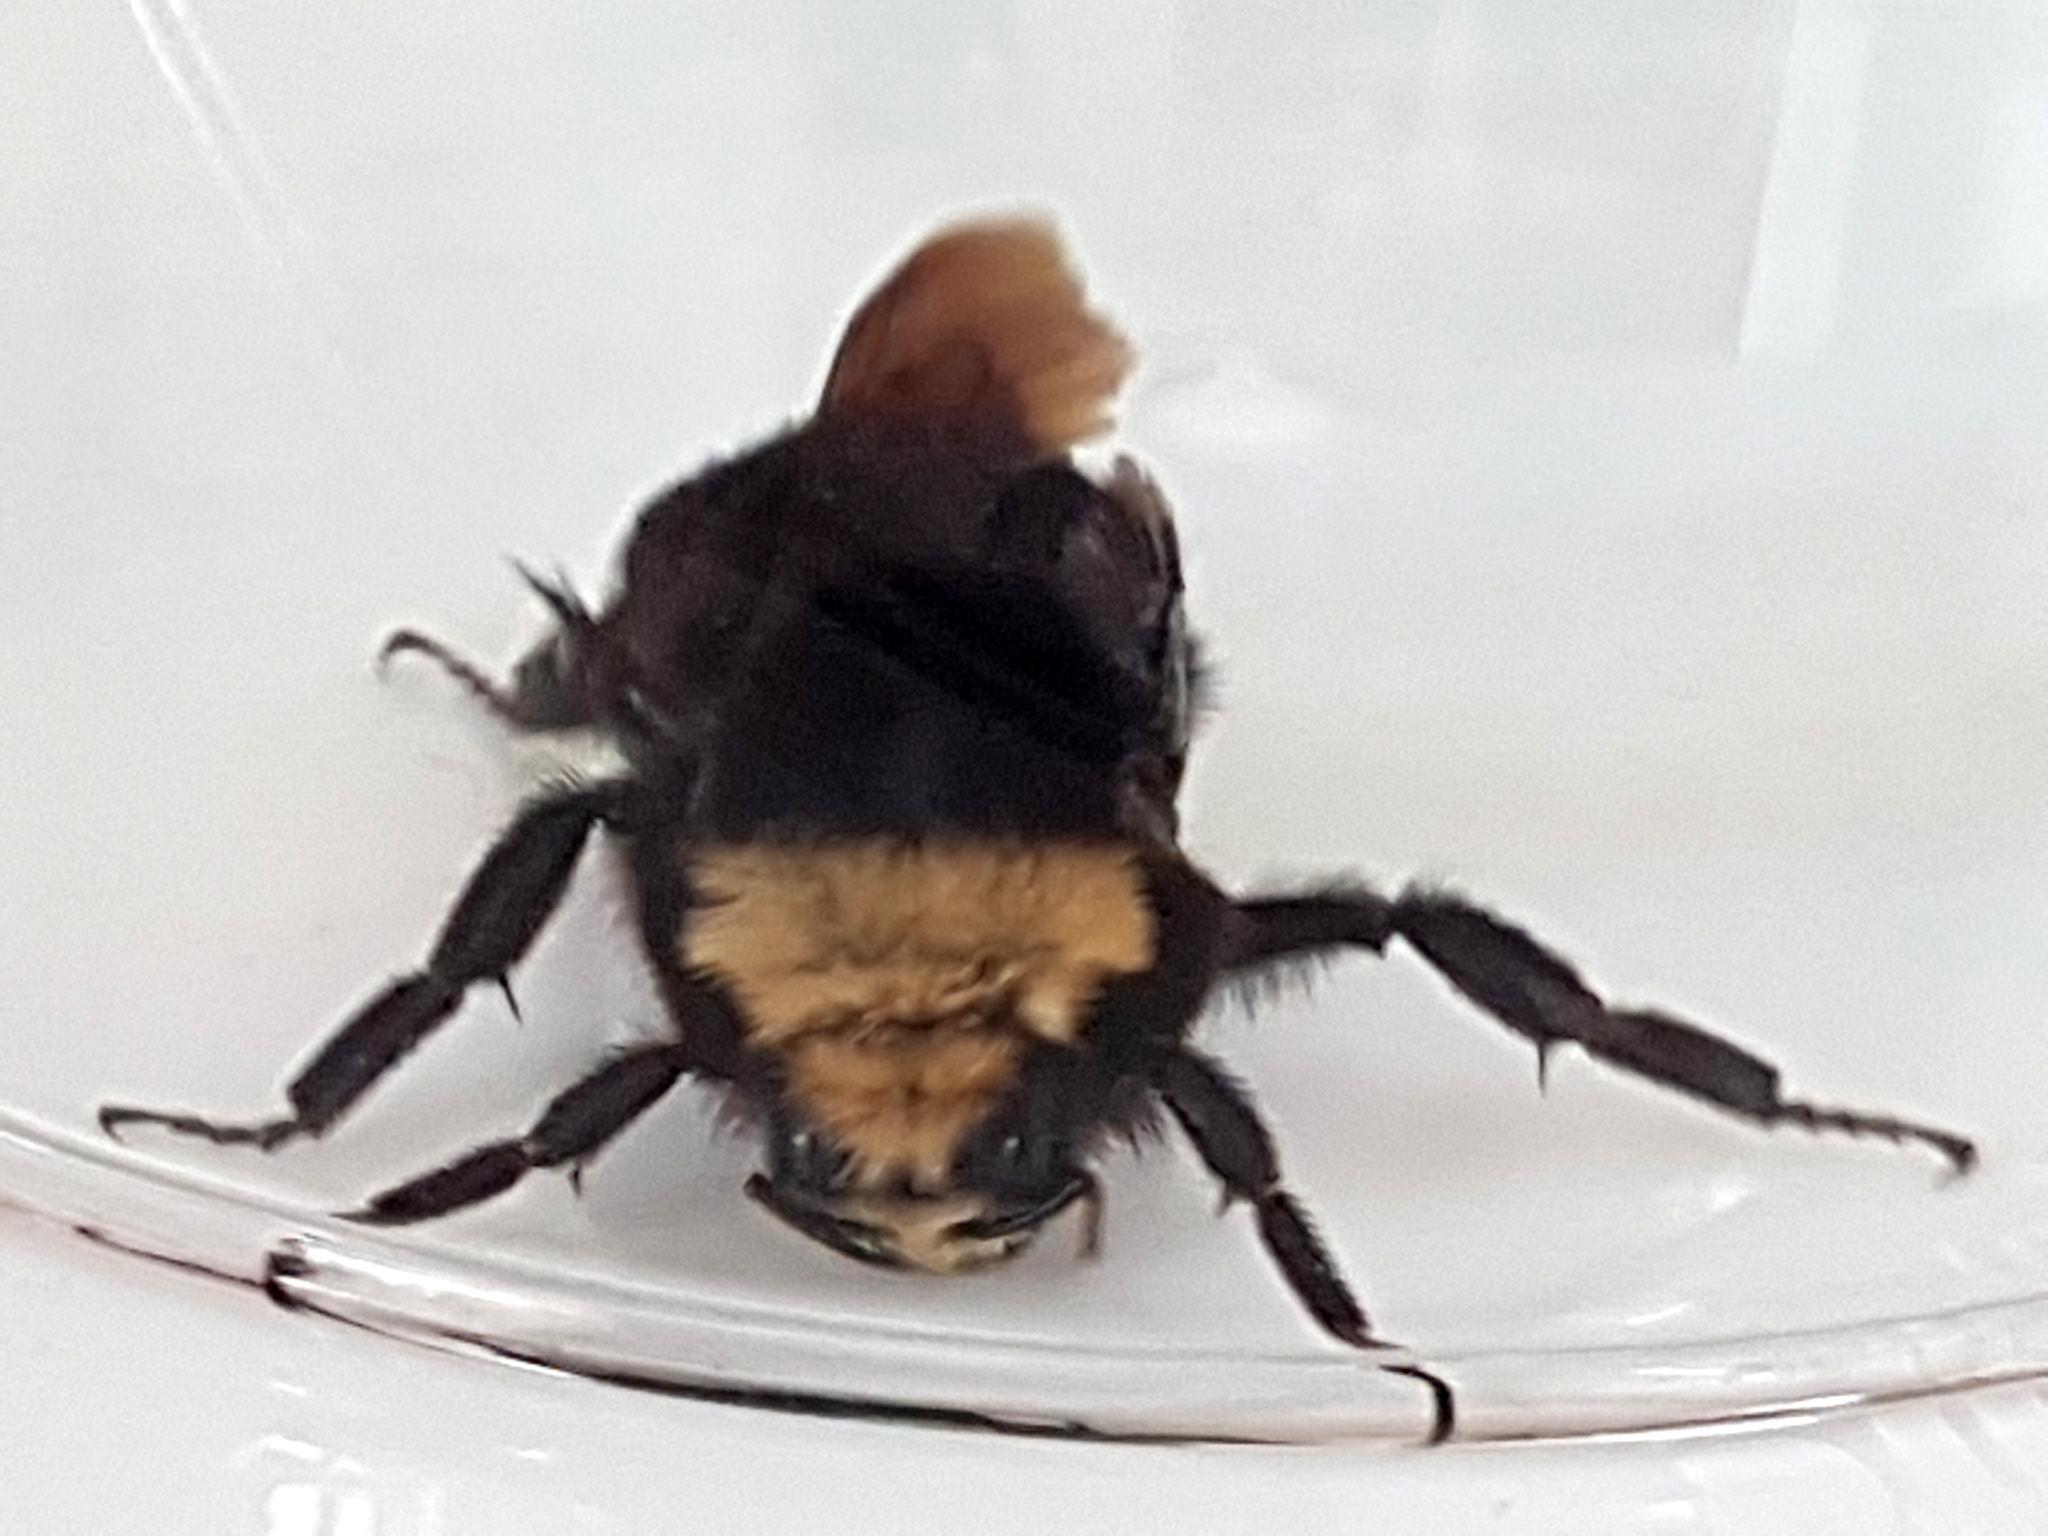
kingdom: Animalia
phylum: Arthropoda
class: Insecta
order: Hymenoptera
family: Apidae
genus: Bombus
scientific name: Bombus vosnesenskii
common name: Vosnesensky bumble bee
